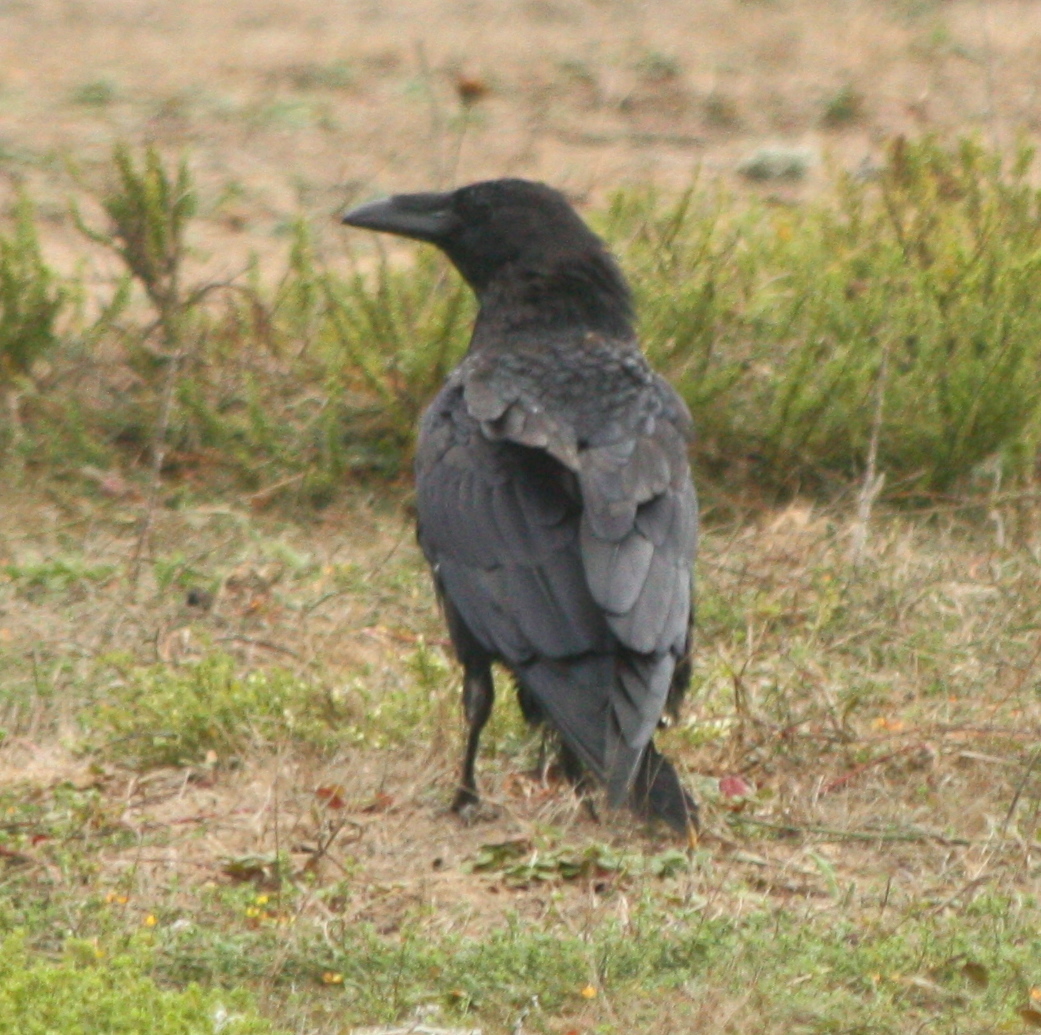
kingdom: Animalia
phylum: Chordata
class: Aves
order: Passeriformes
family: Corvidae
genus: Corvus
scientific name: Corvus corax
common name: Common raven
